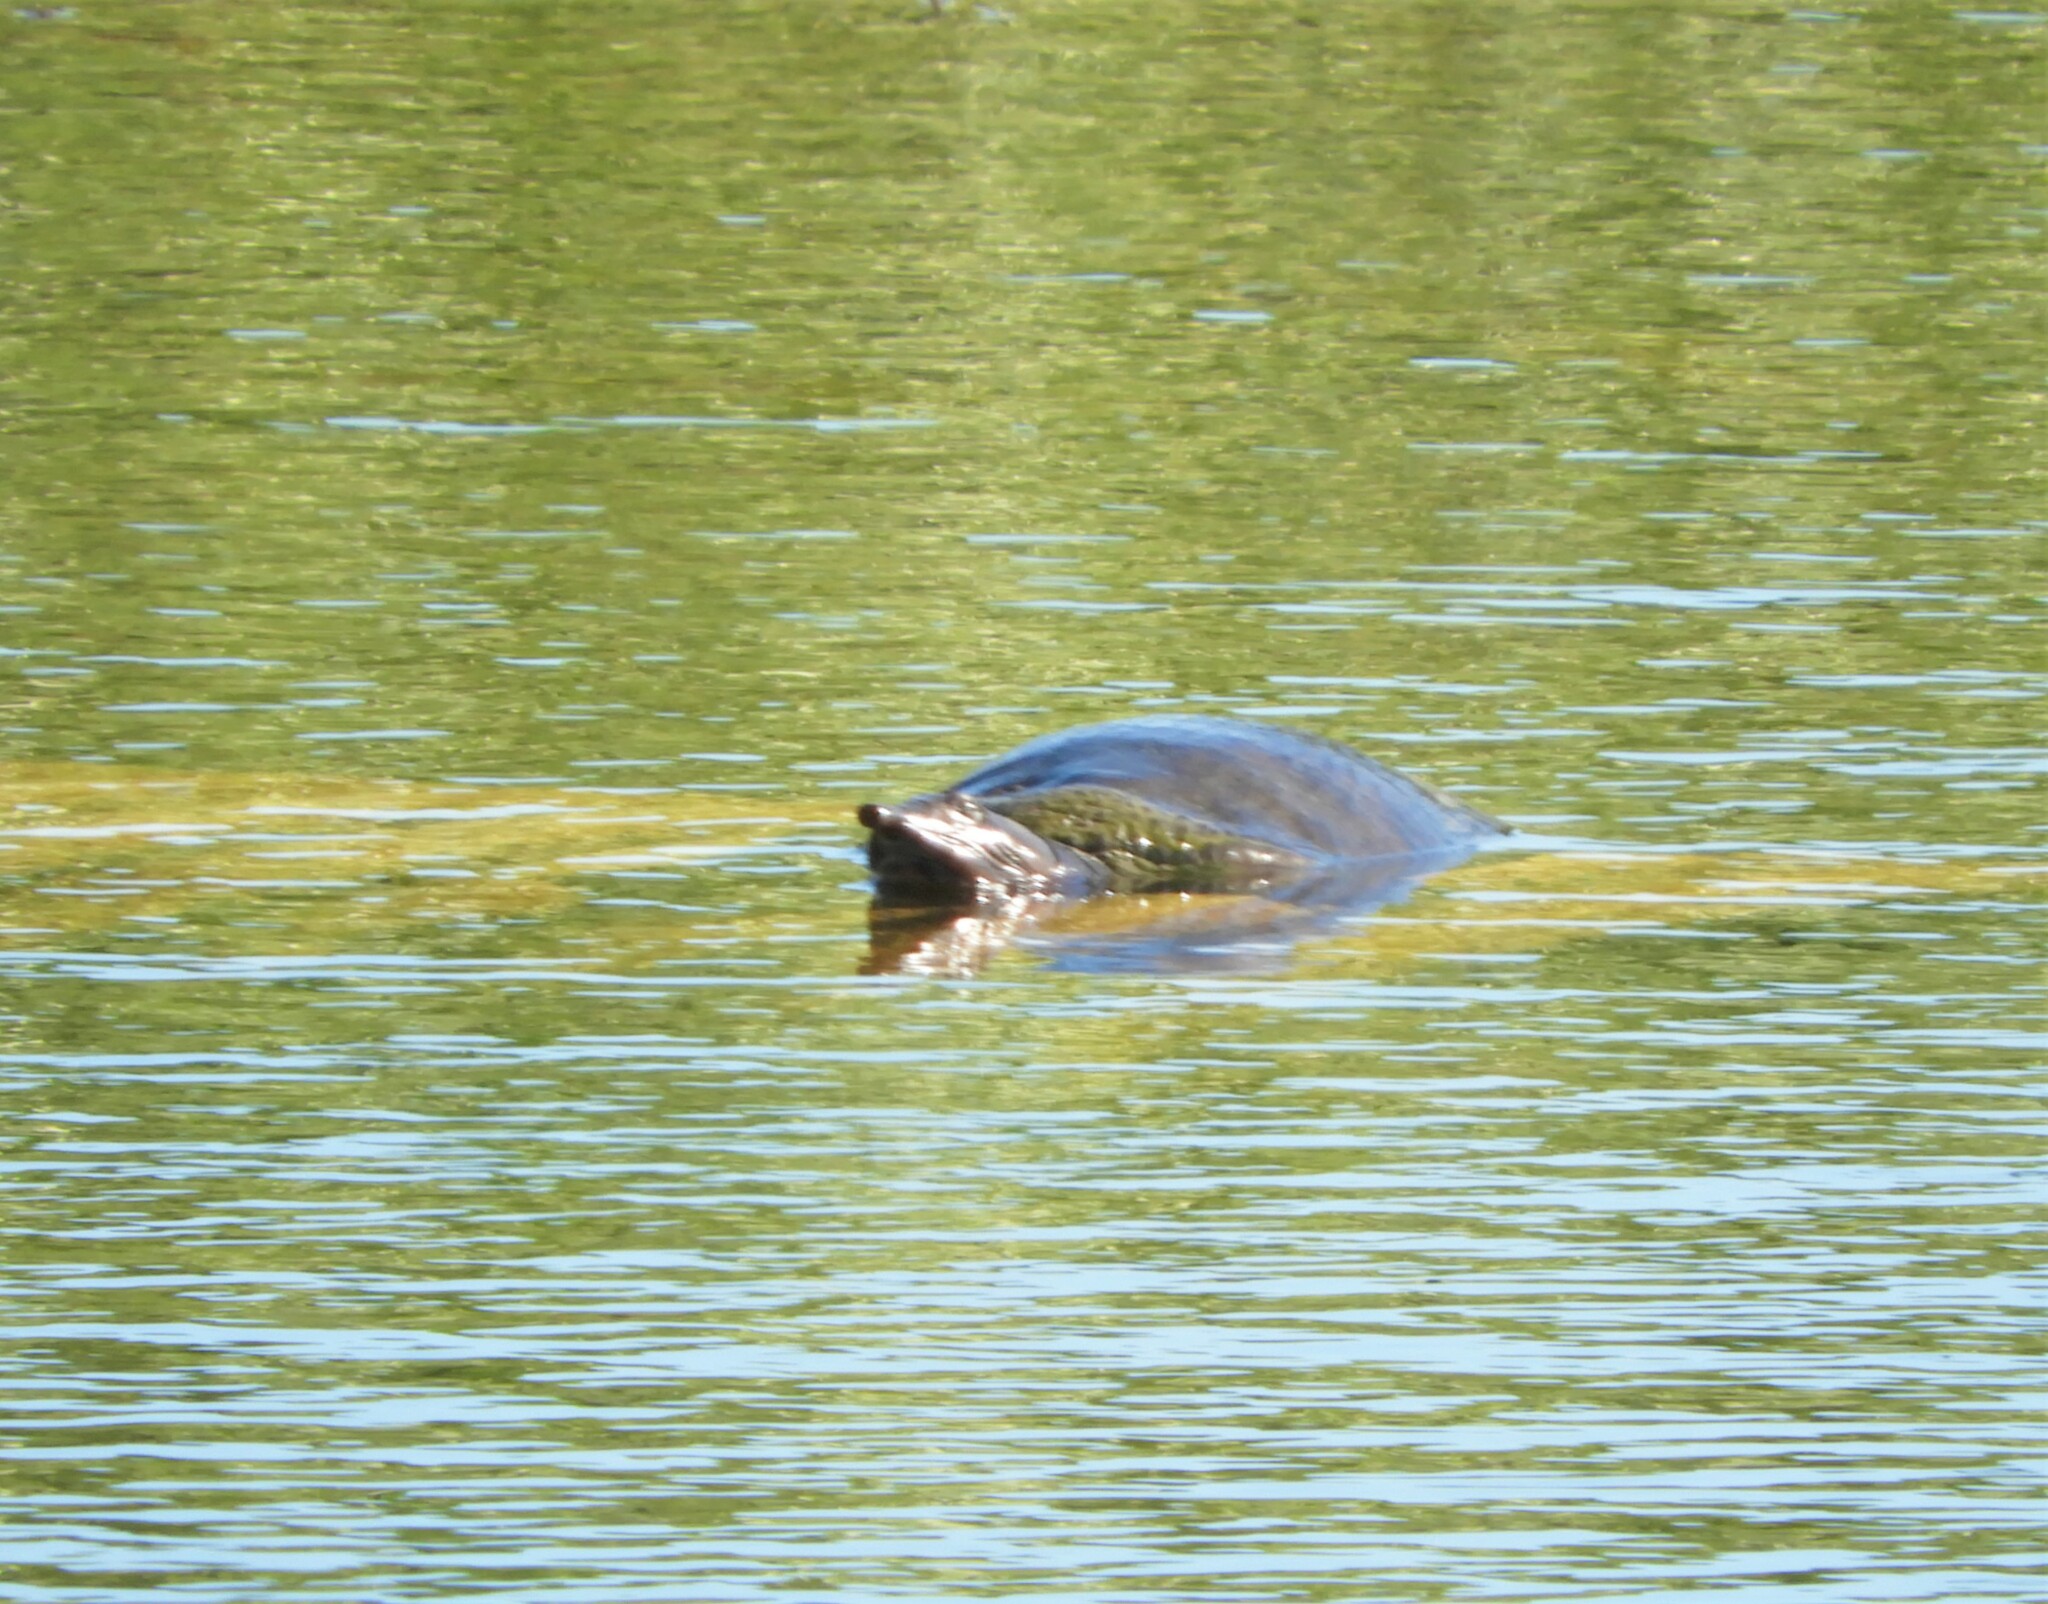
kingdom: Animalia
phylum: Chordata
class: Testudines
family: Trionychidae
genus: Apalone
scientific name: Apalone ferox
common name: Florida softshell turtle
